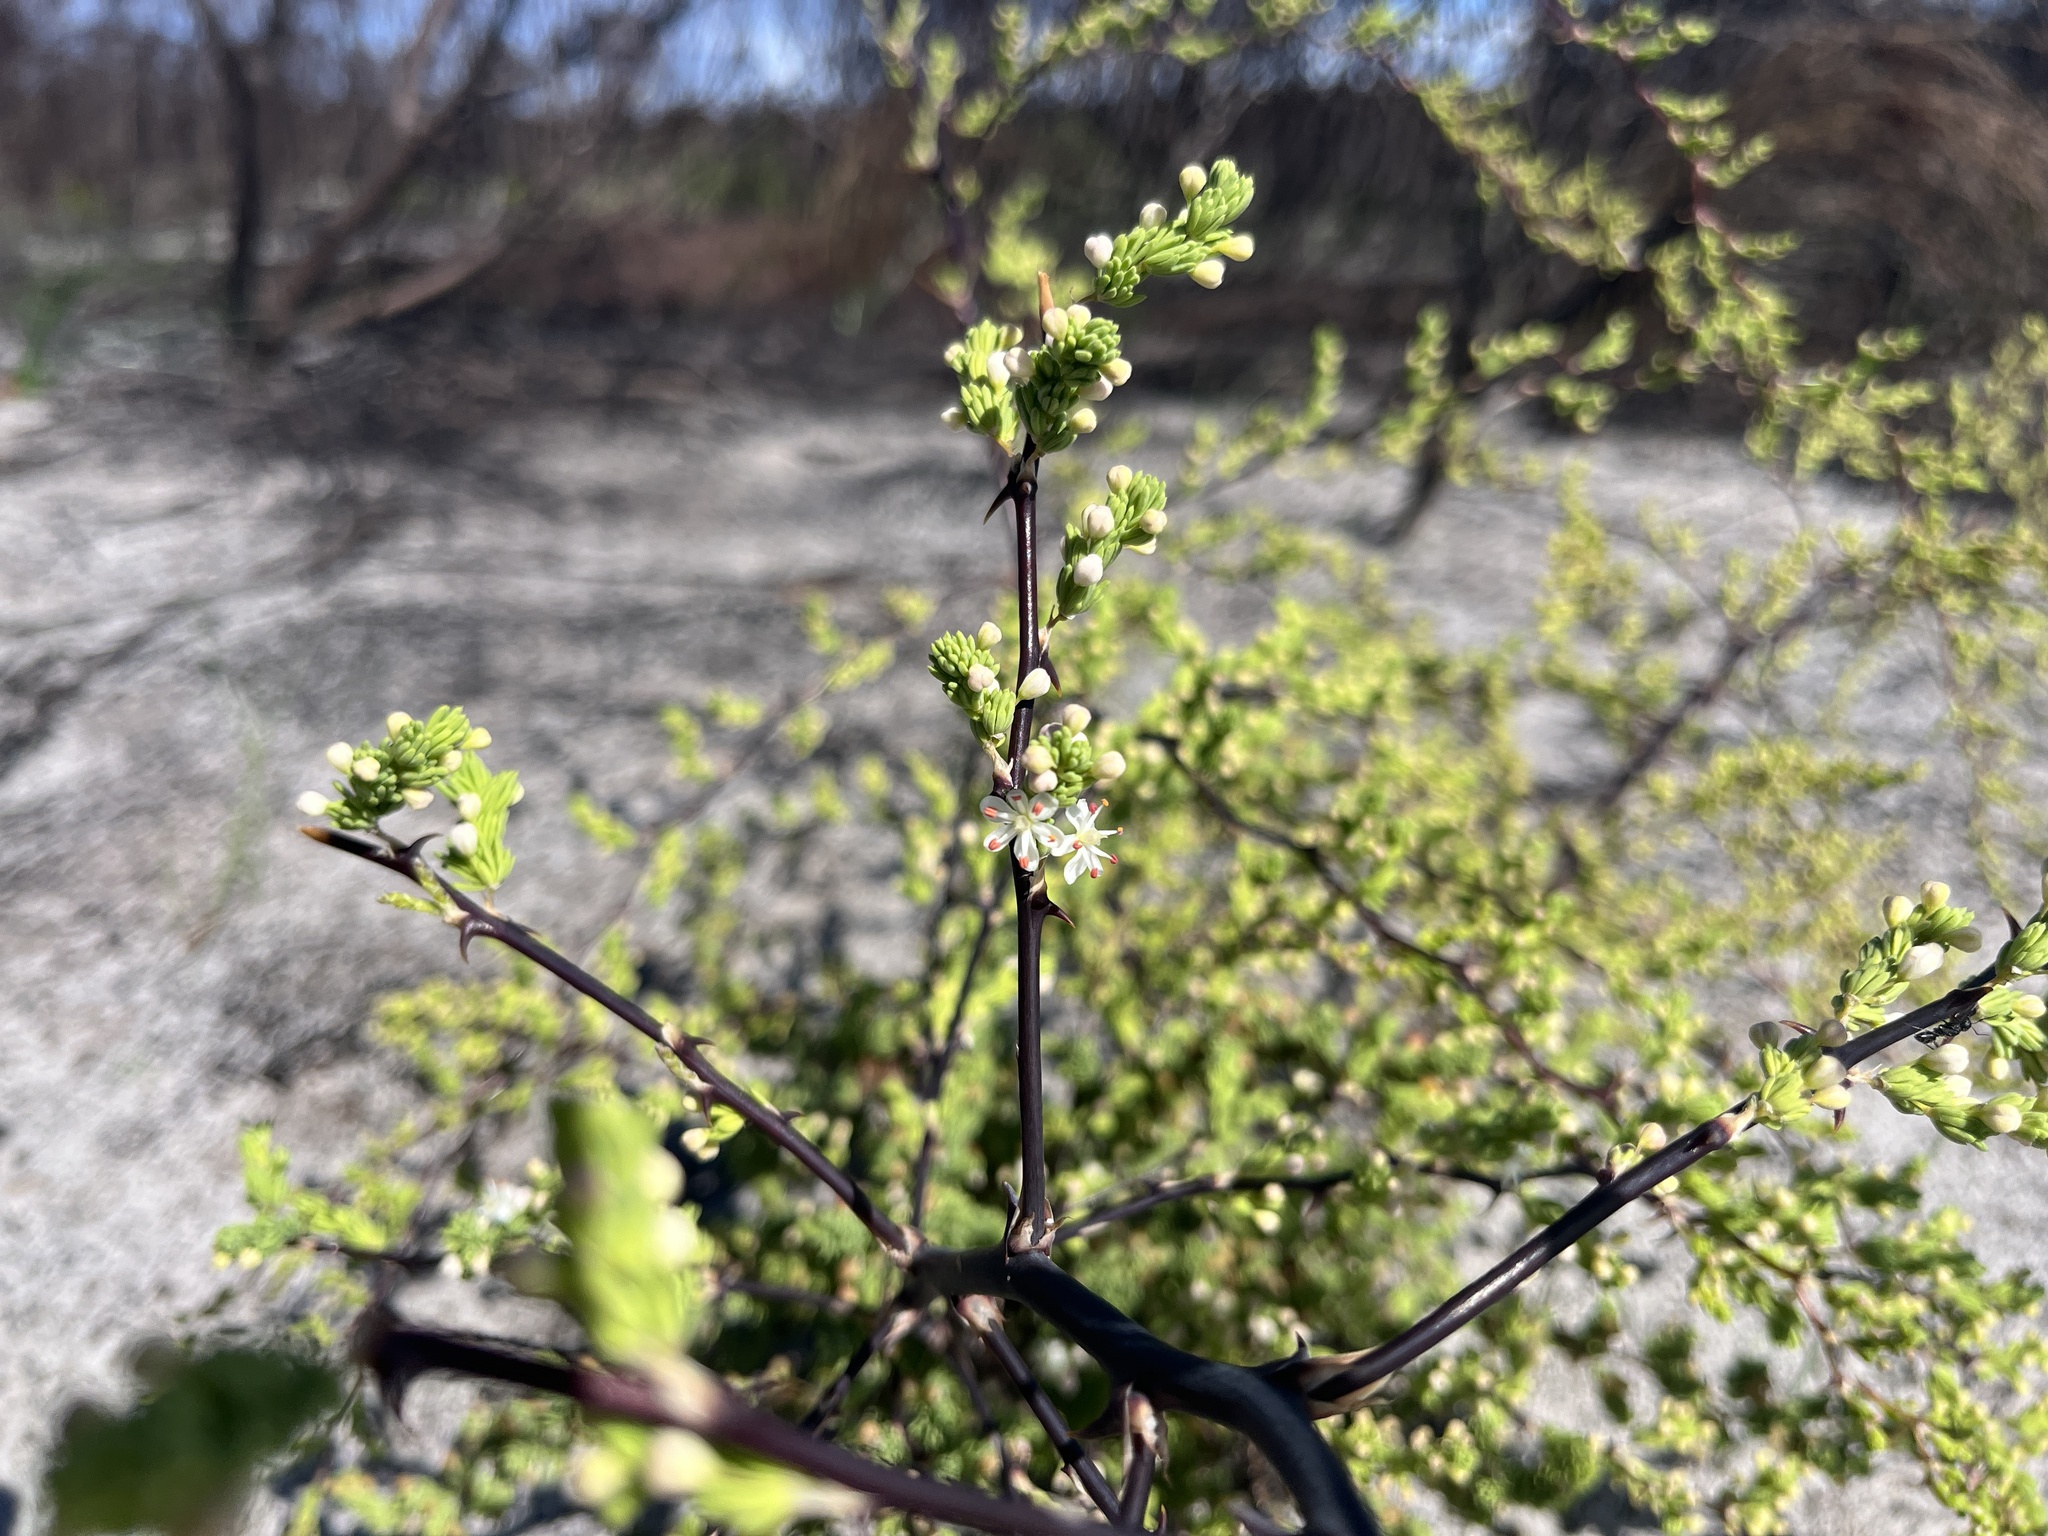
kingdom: Plantae
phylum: Tracheophyta
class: Liliopsida
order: Asparagales
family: Asparagaceae
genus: Asparagus
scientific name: Asparagus rubicundus
